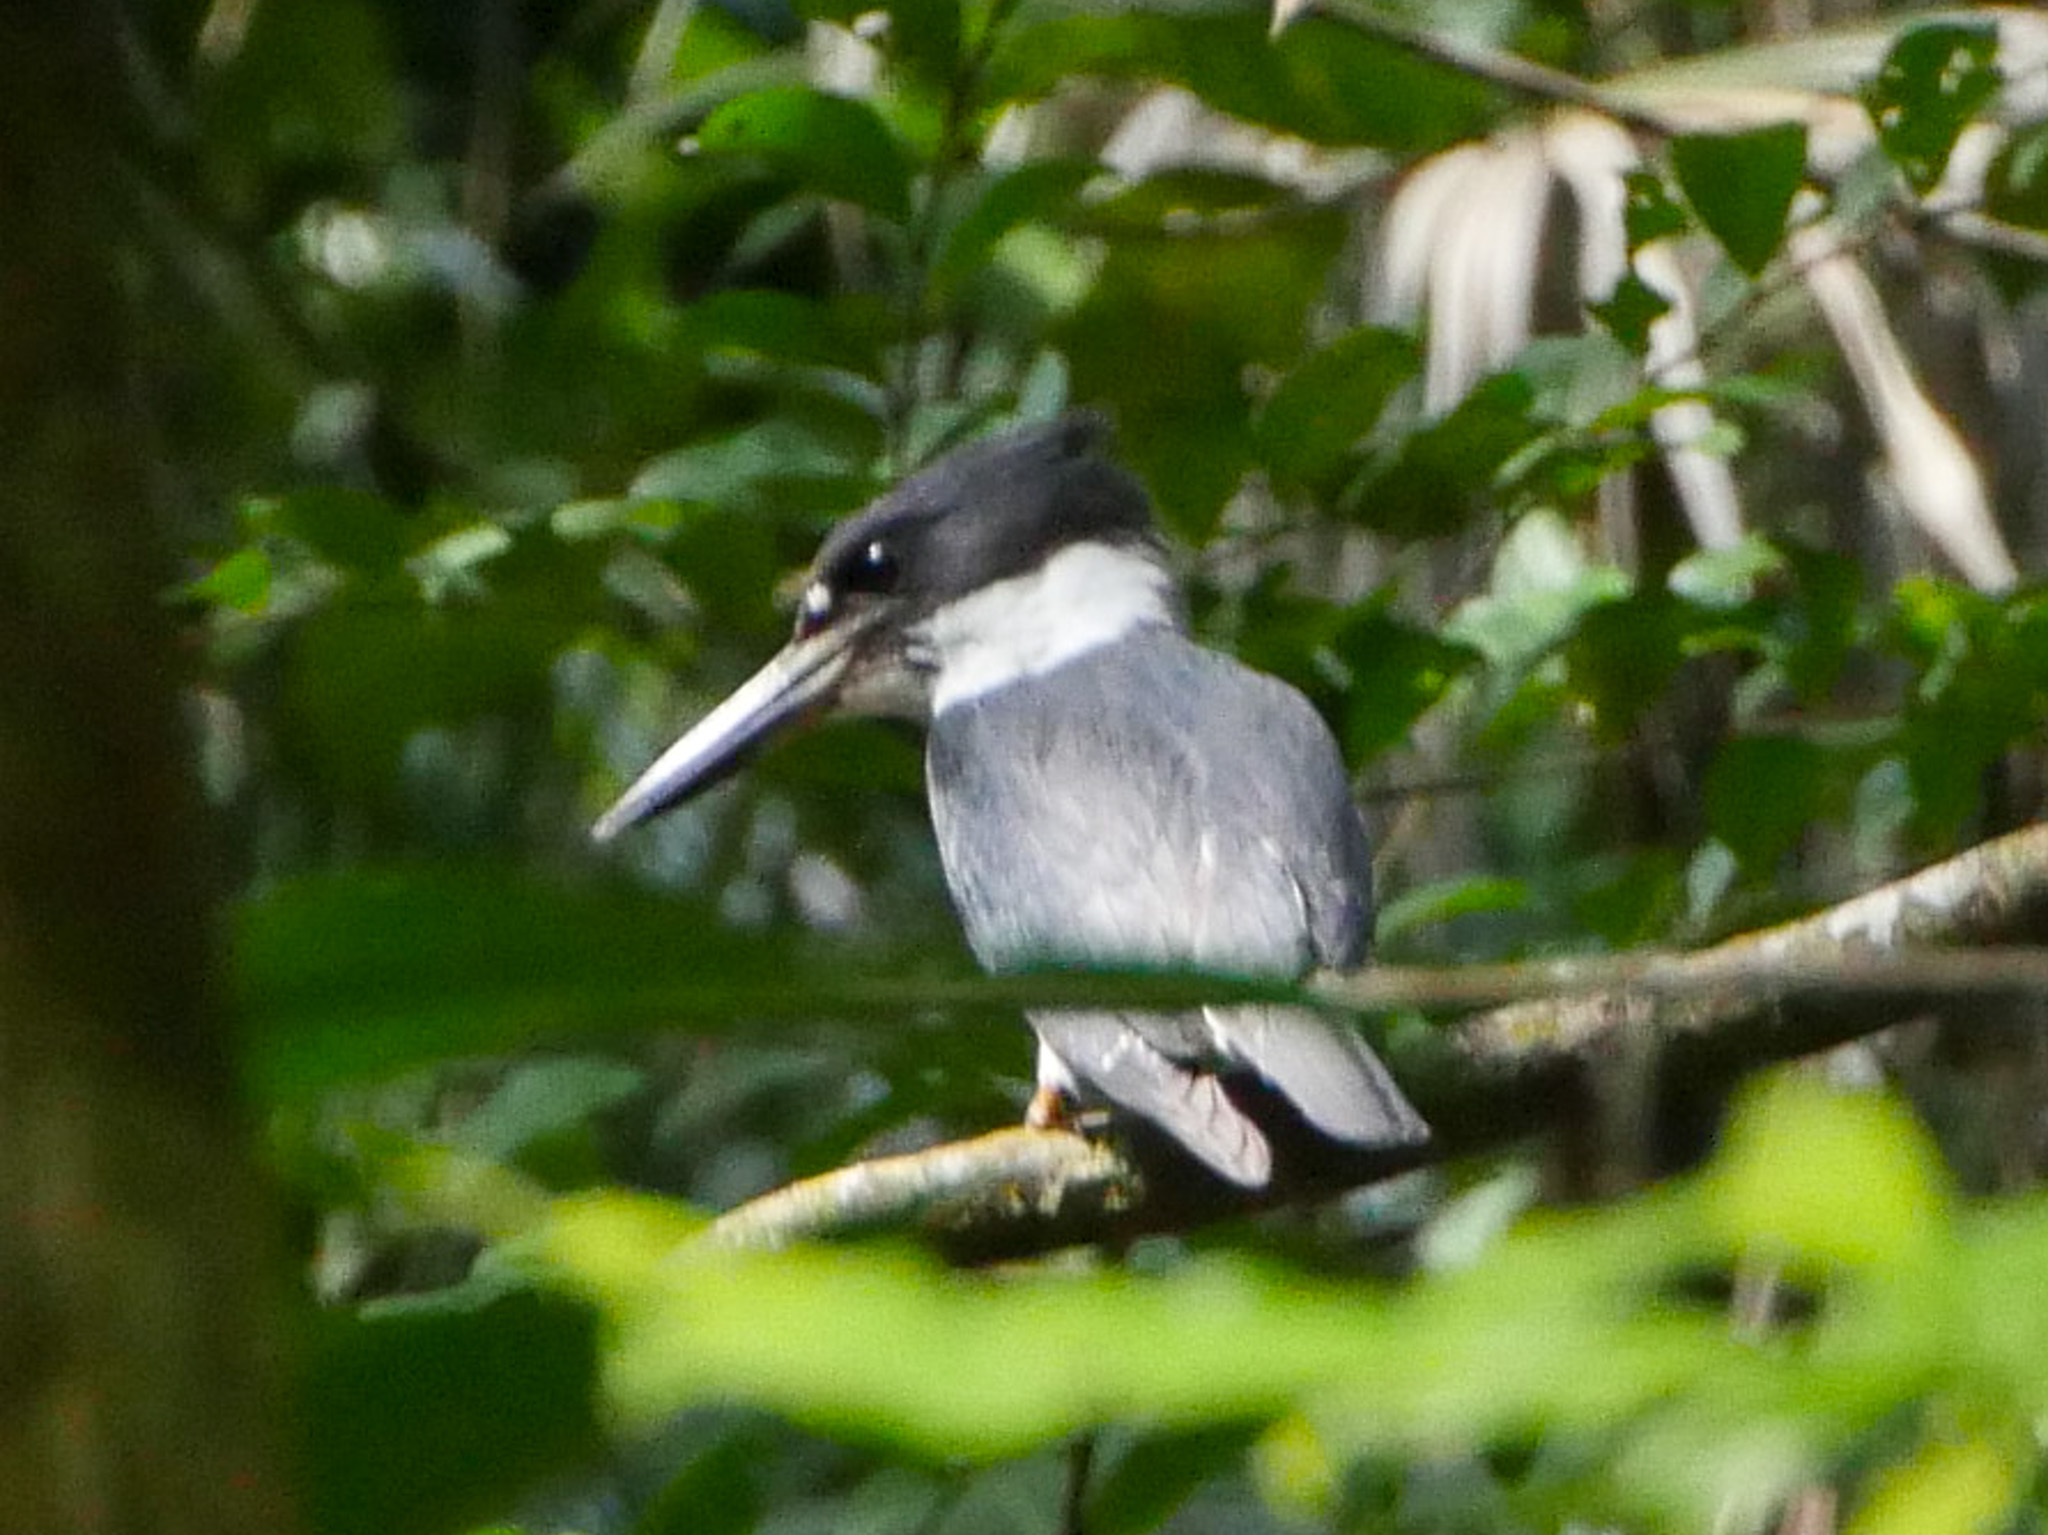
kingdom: Animalia
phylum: Chordata
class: Aves
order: Coraciiformes
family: Alcedinidae
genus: Megaceryle
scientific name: Megaceryle torquata
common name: Ringed kingfisher
